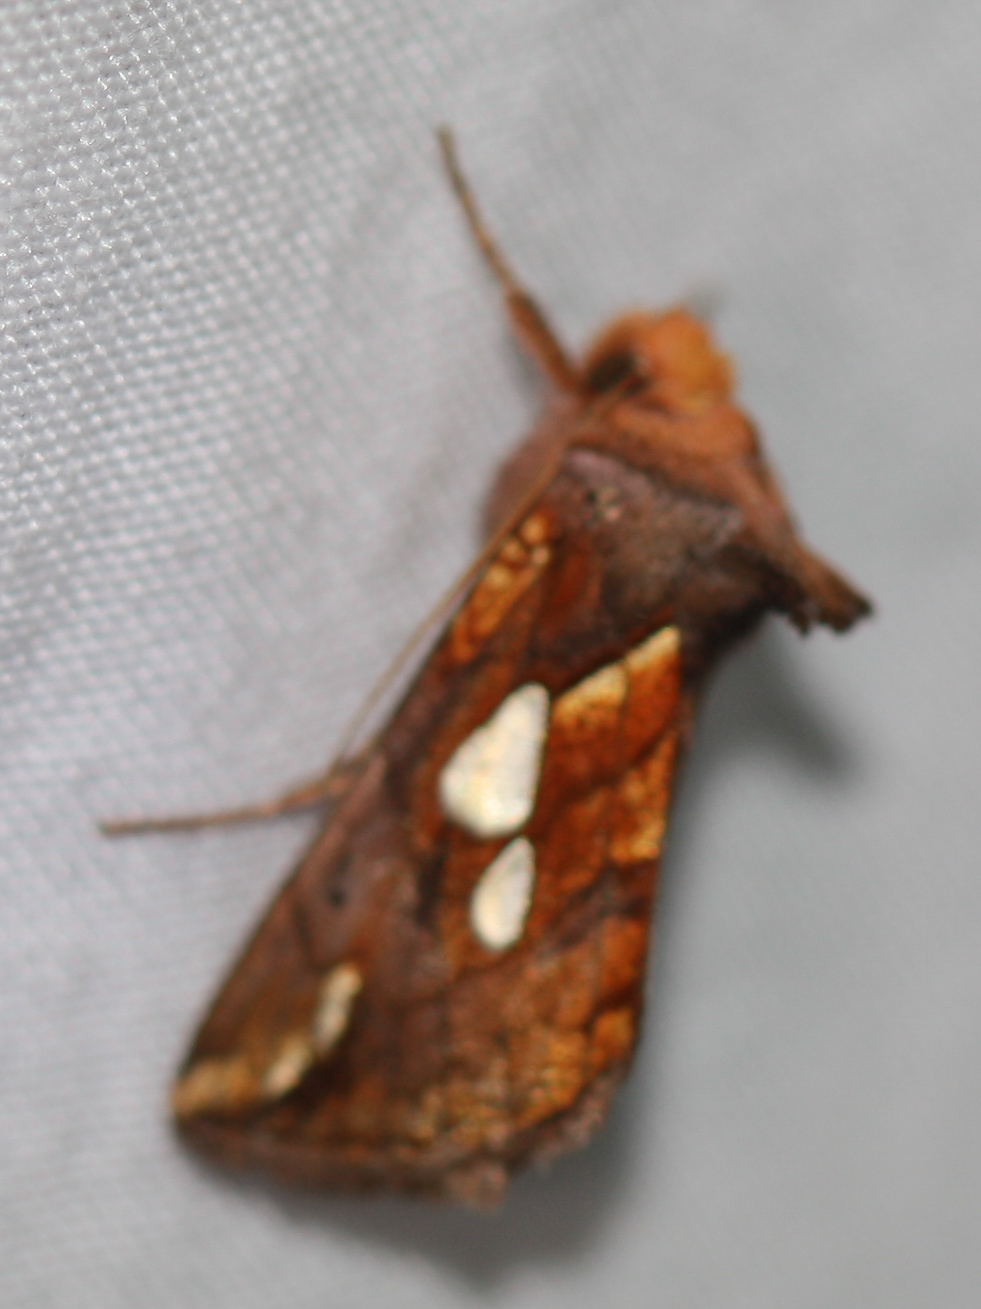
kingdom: Animalia
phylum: Arthropoda
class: Insecta
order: Lepidoptera
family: Noctuidae
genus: Plusia
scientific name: Plusia putnami
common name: Lempke's gold spot
